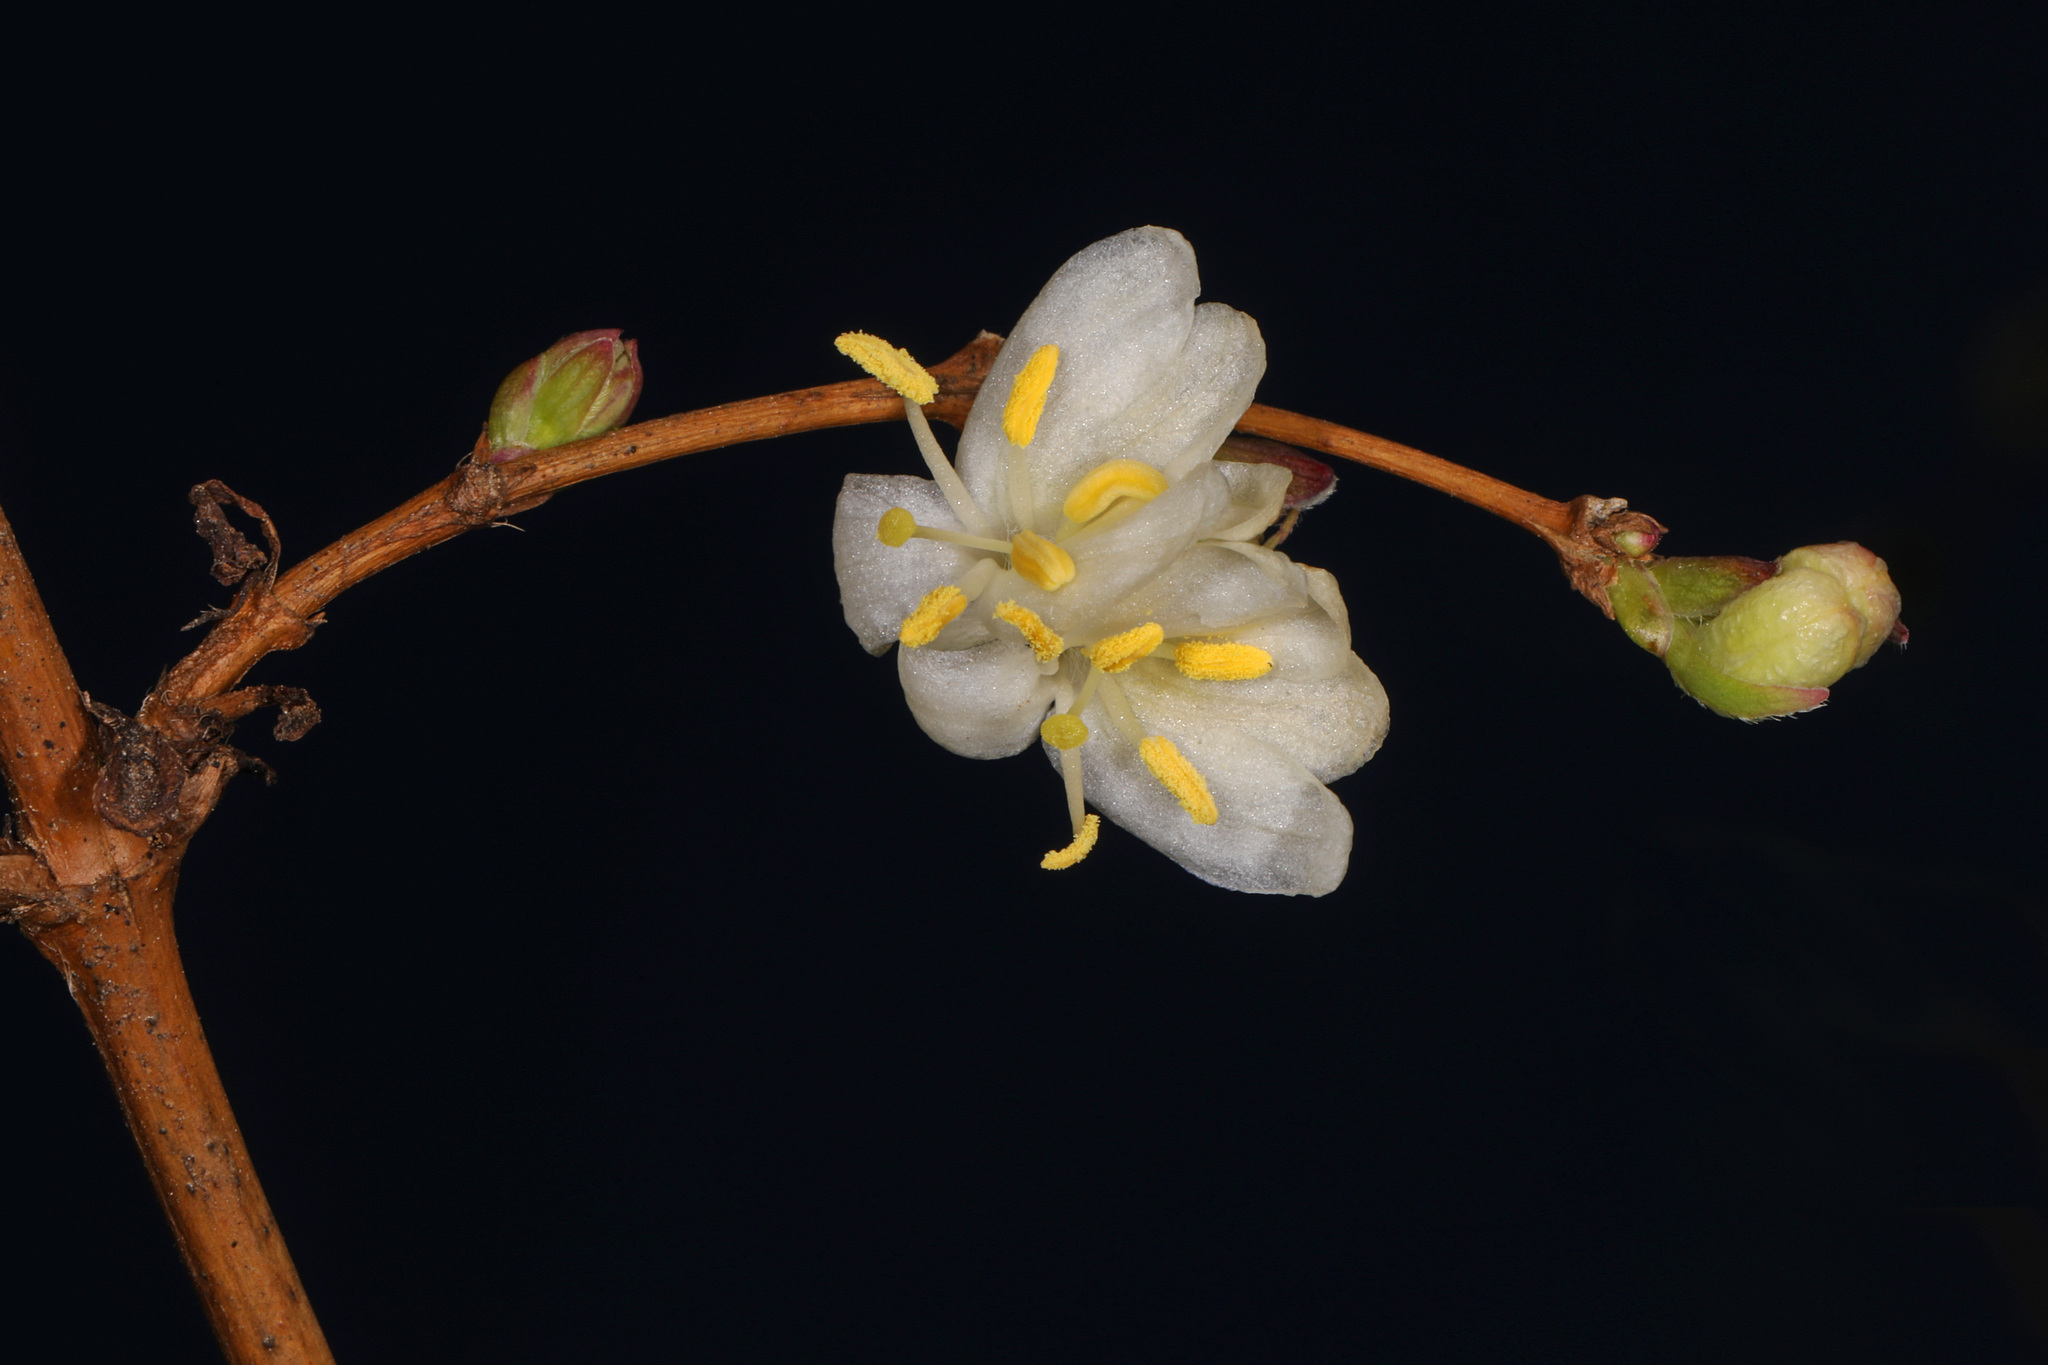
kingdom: Plantae
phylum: Tracheophyta
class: Magnoliopsida
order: Dipsacales
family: Caprifoliaceae
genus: Lonicera
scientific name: Lonicera fragrantissima
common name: Fragrant honeysuckle
